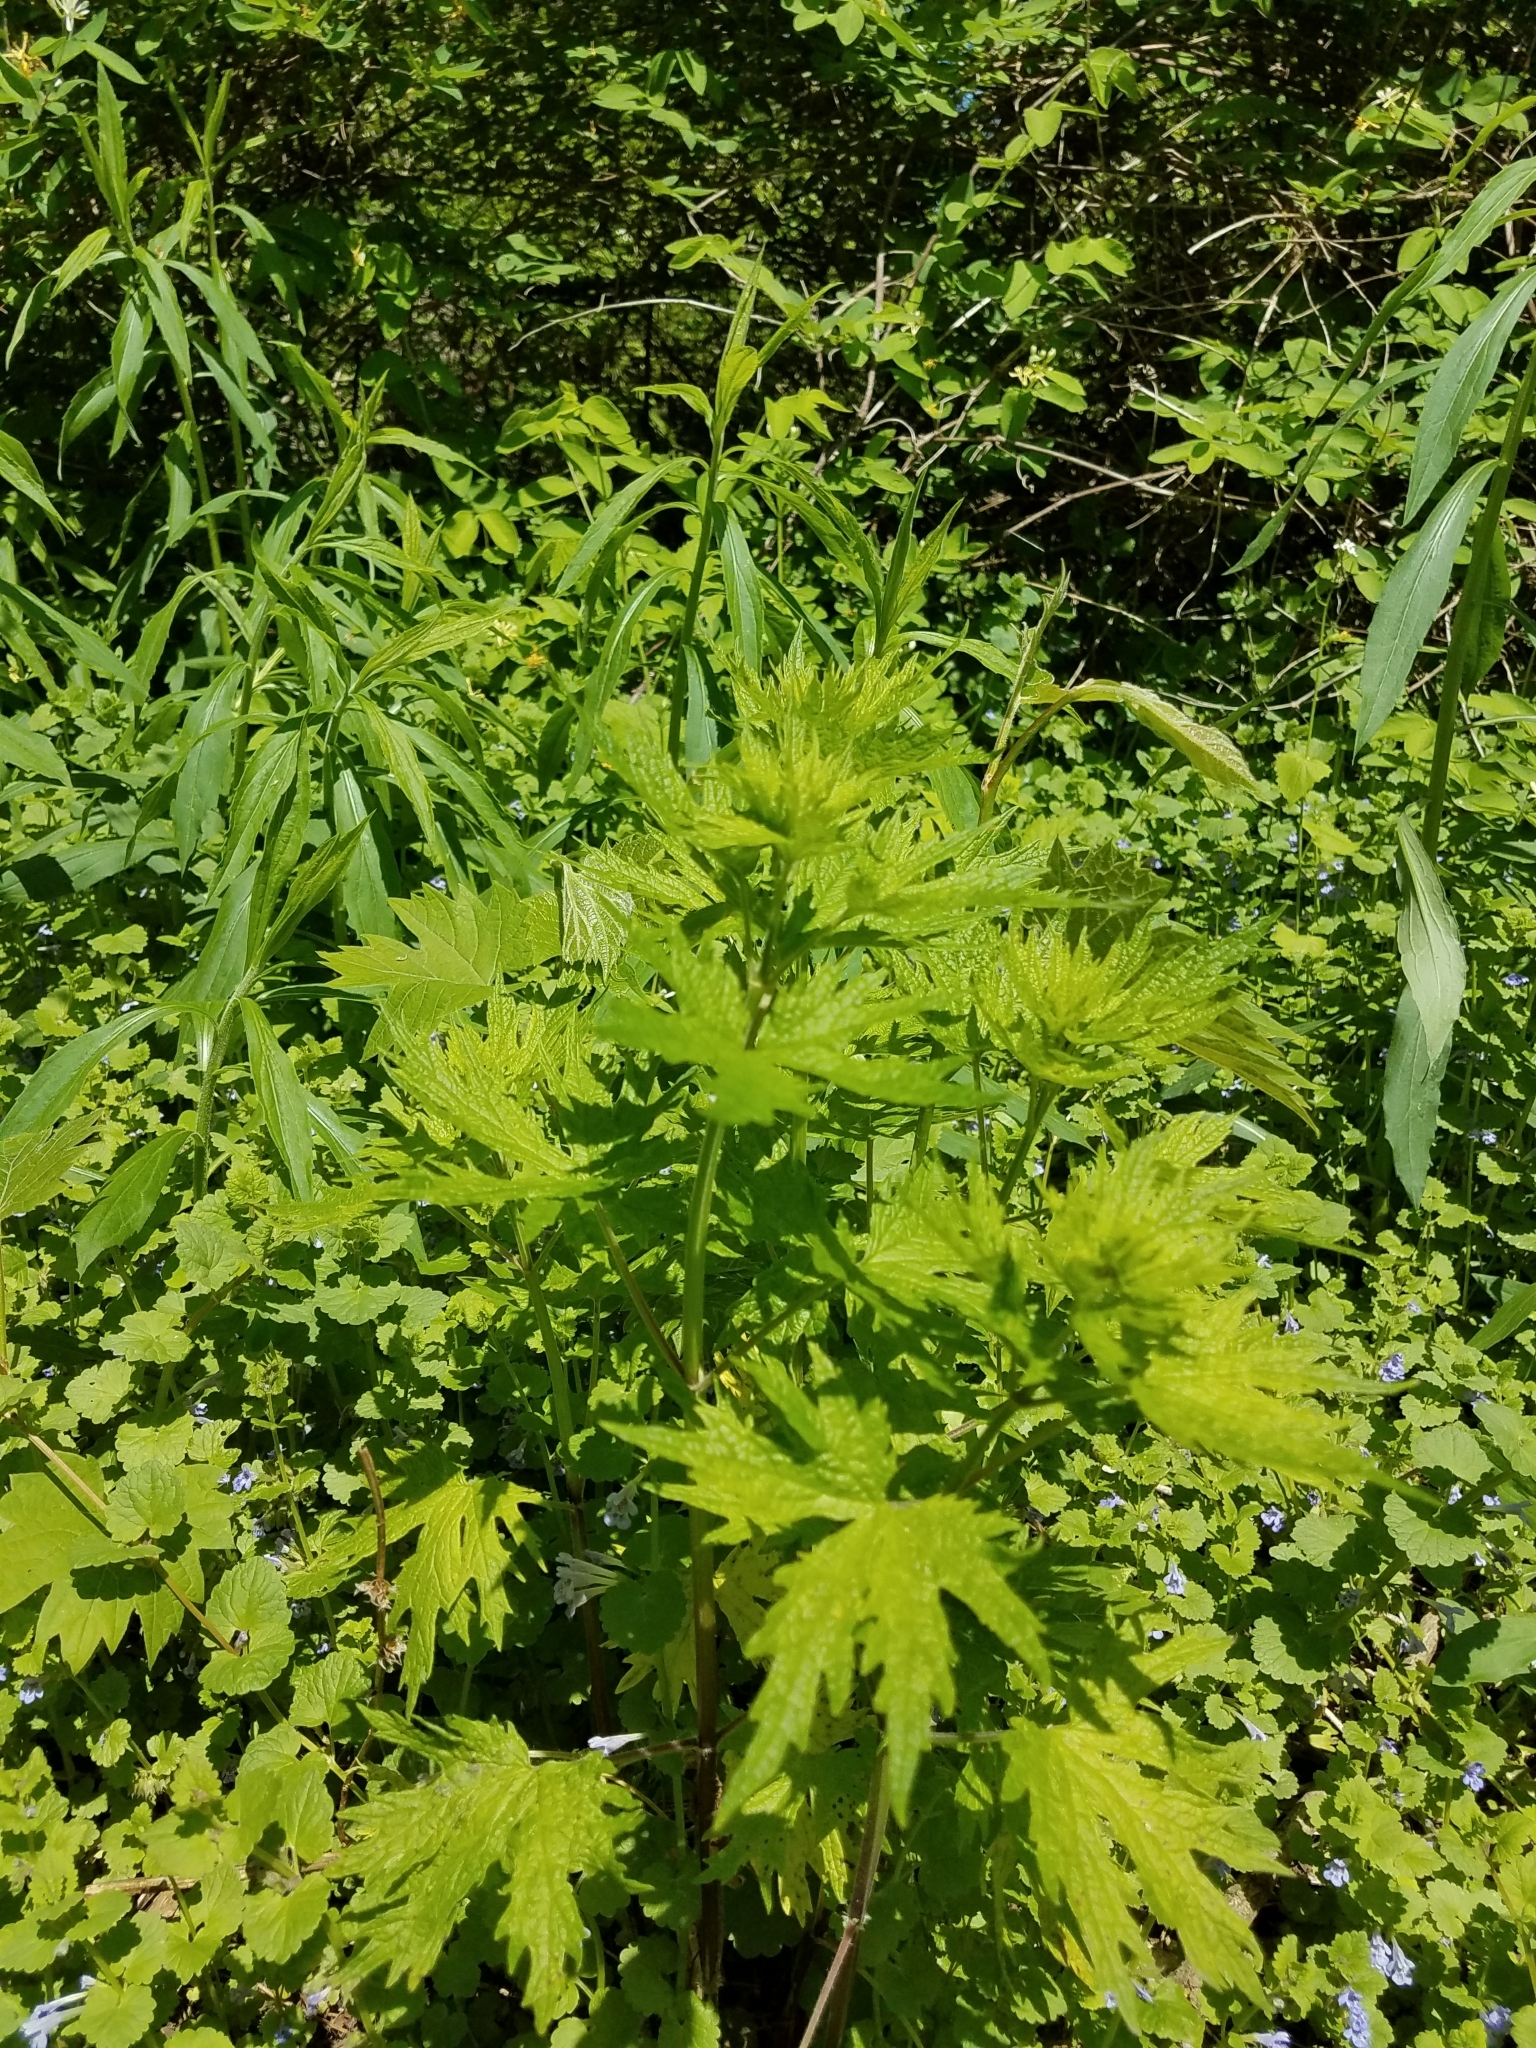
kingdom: Plantae
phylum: Tracheophyta
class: Magnoliopsida
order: Lamiales
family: Lamiaceae
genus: Leonurus
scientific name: Leonurus cardiaca
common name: Motherwort
